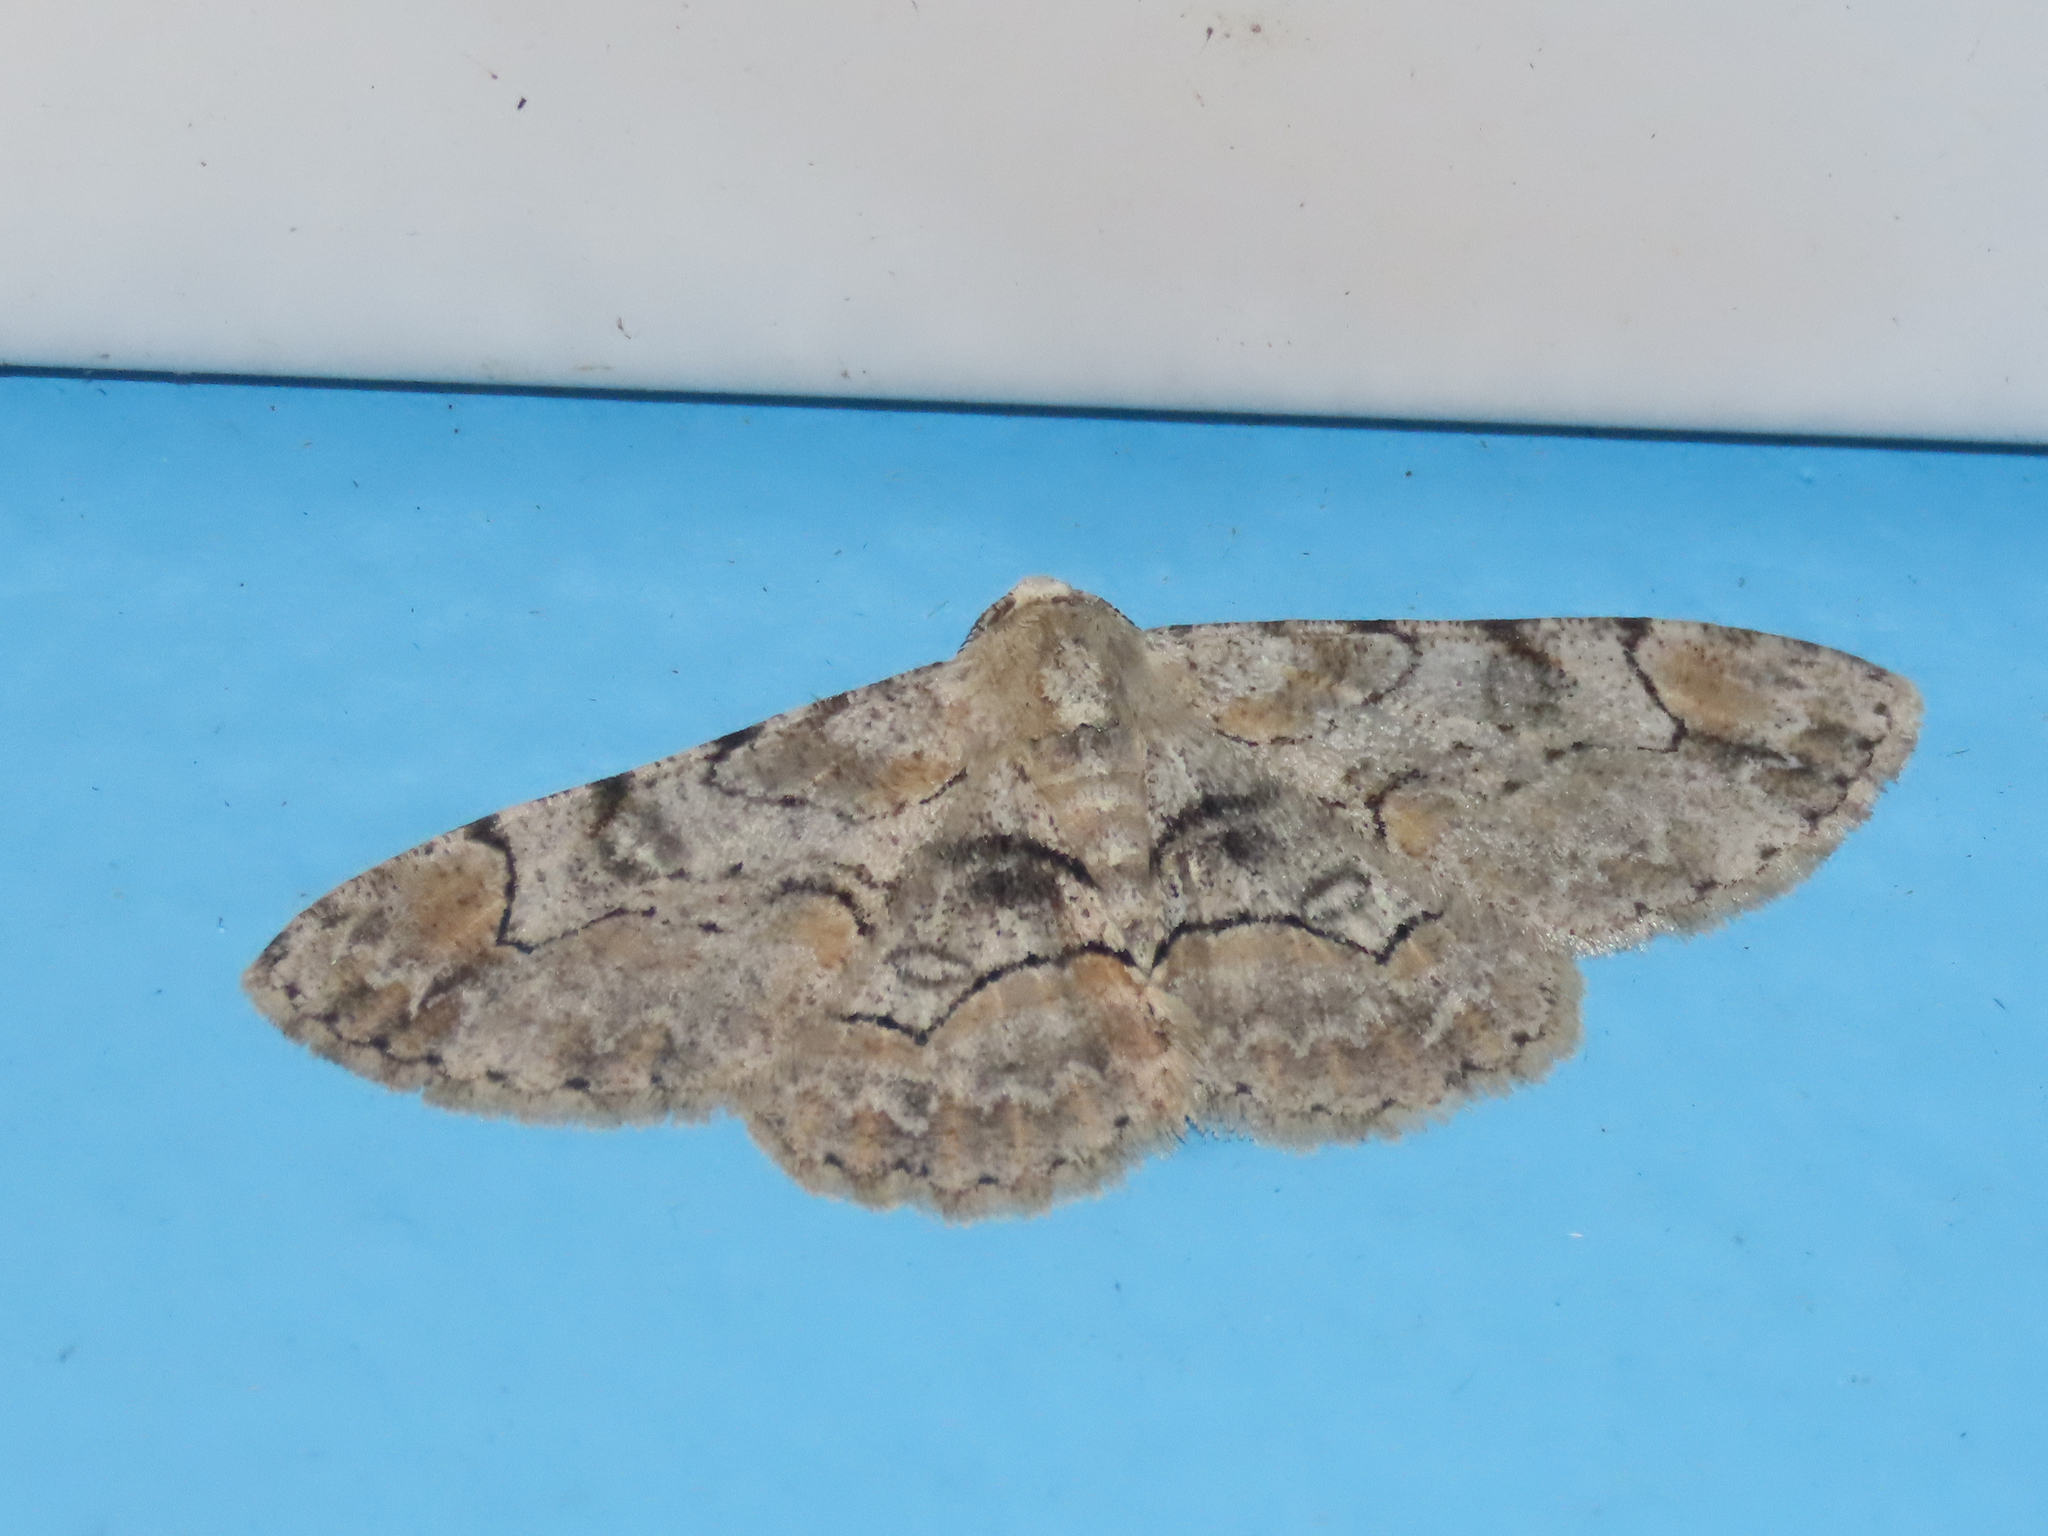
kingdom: Animalia
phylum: Arthropoda
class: Insecta
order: Lepidoptera
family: Geometridae
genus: Iridopsis
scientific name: Iridopsis larvaria
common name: Bent-line gray
